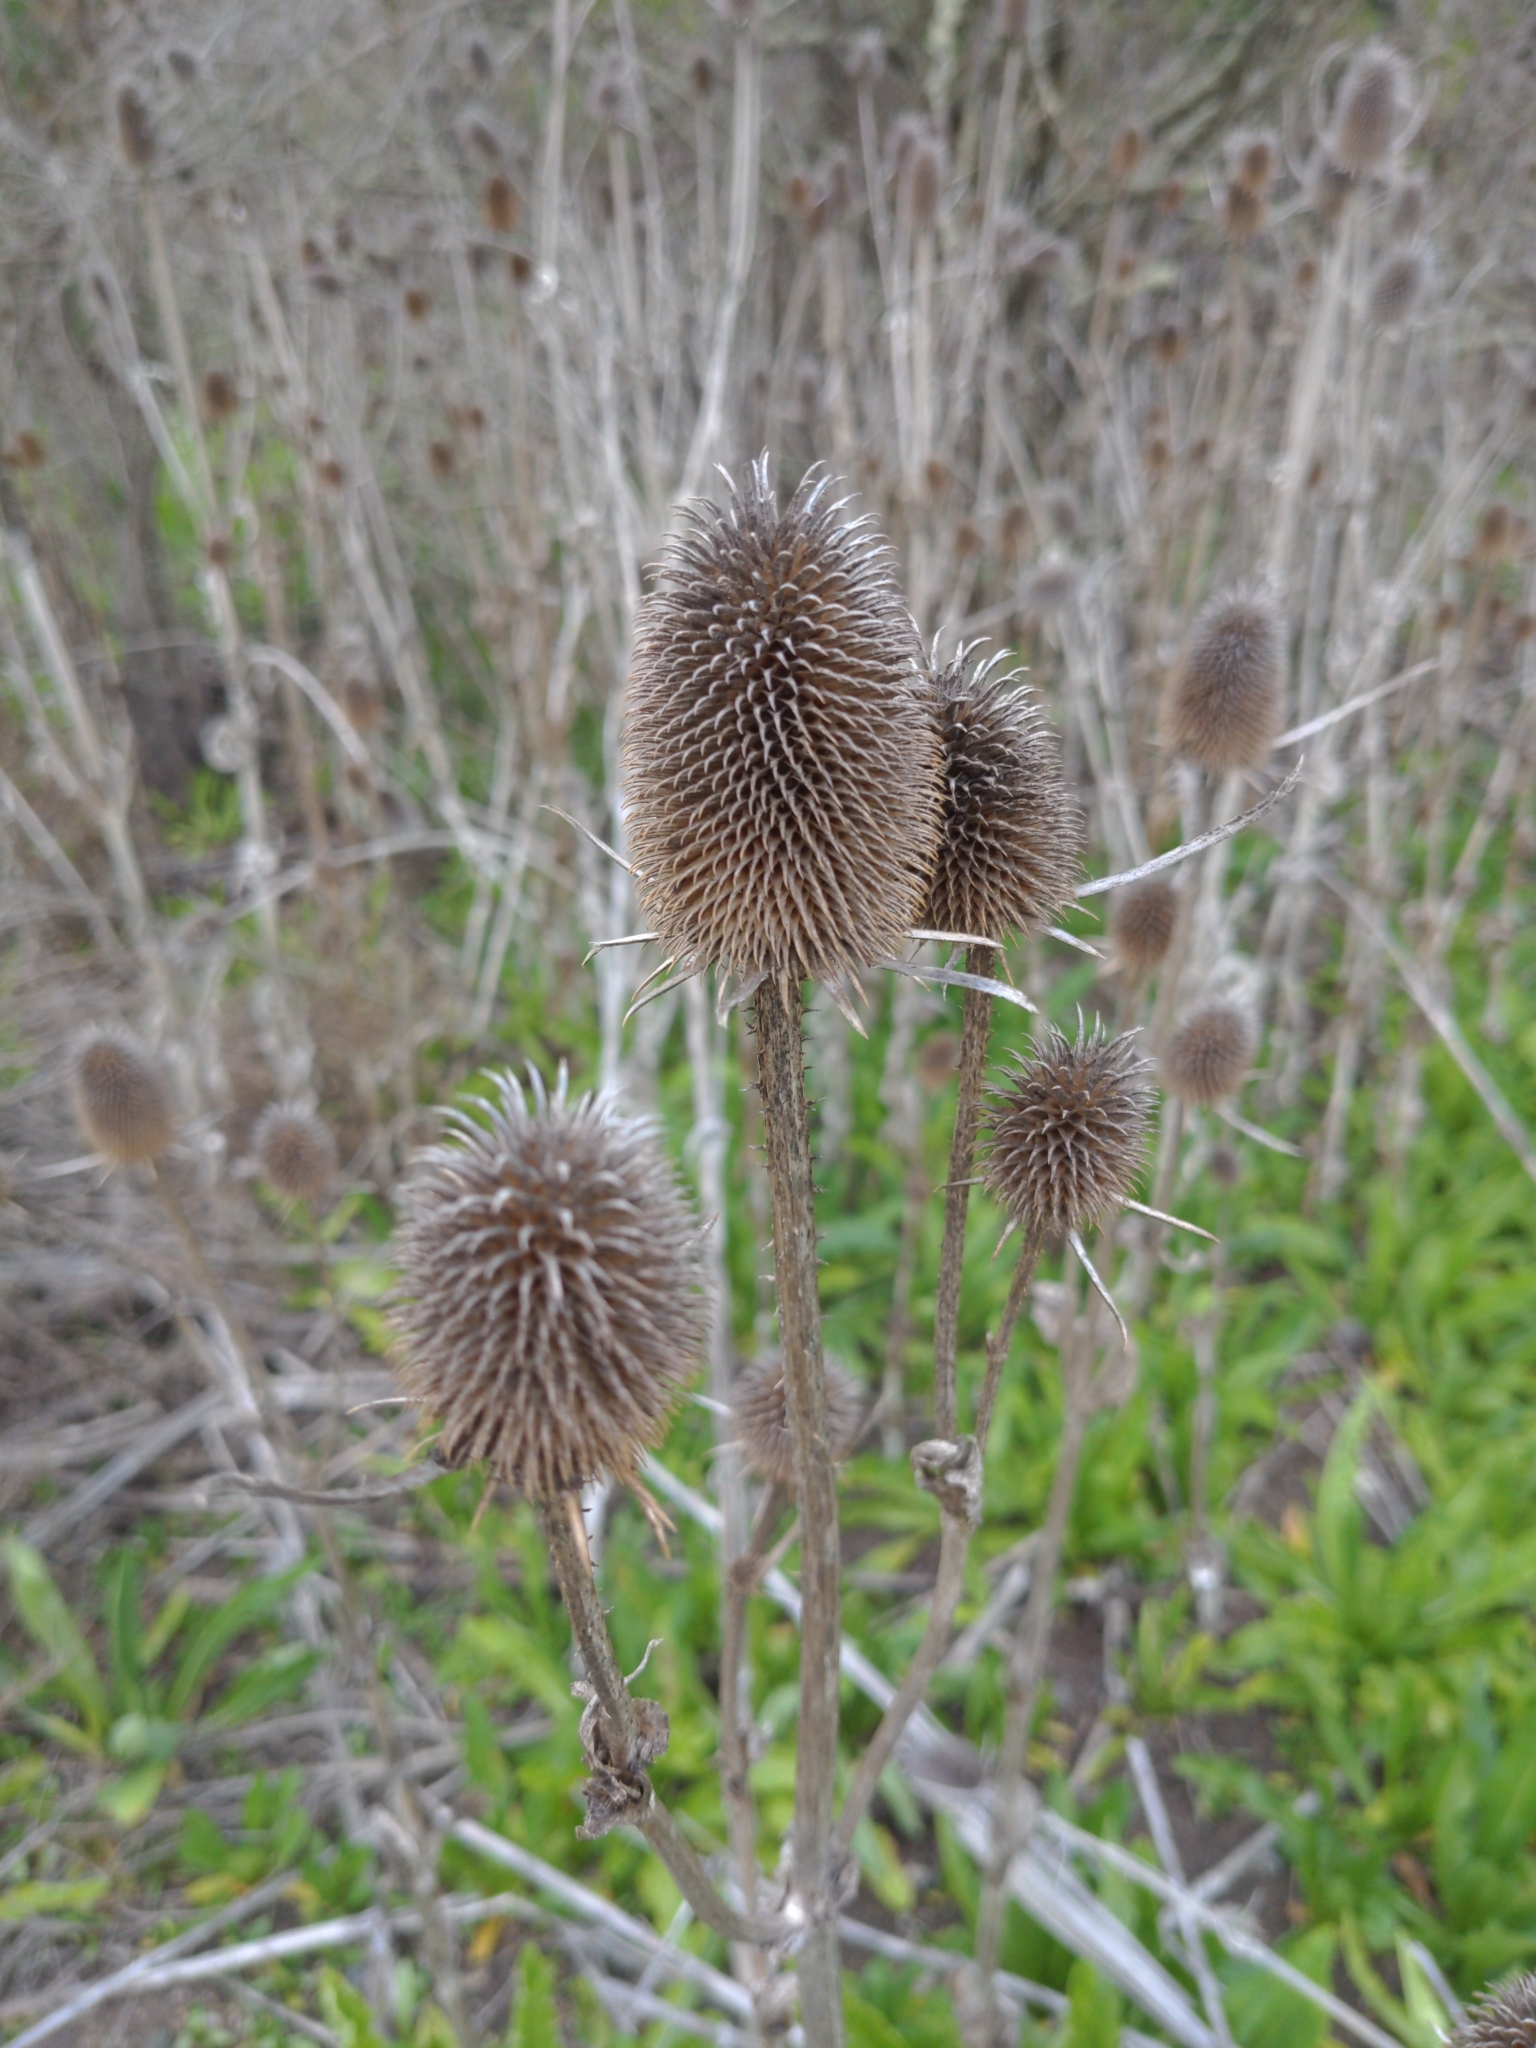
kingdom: Plantae
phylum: Tracheophyta
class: Magnoliopsida
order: Dipsacales
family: Caprifoliaceae
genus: Dipsacus
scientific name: Dipsacus sativus
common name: Fuller's teasel
